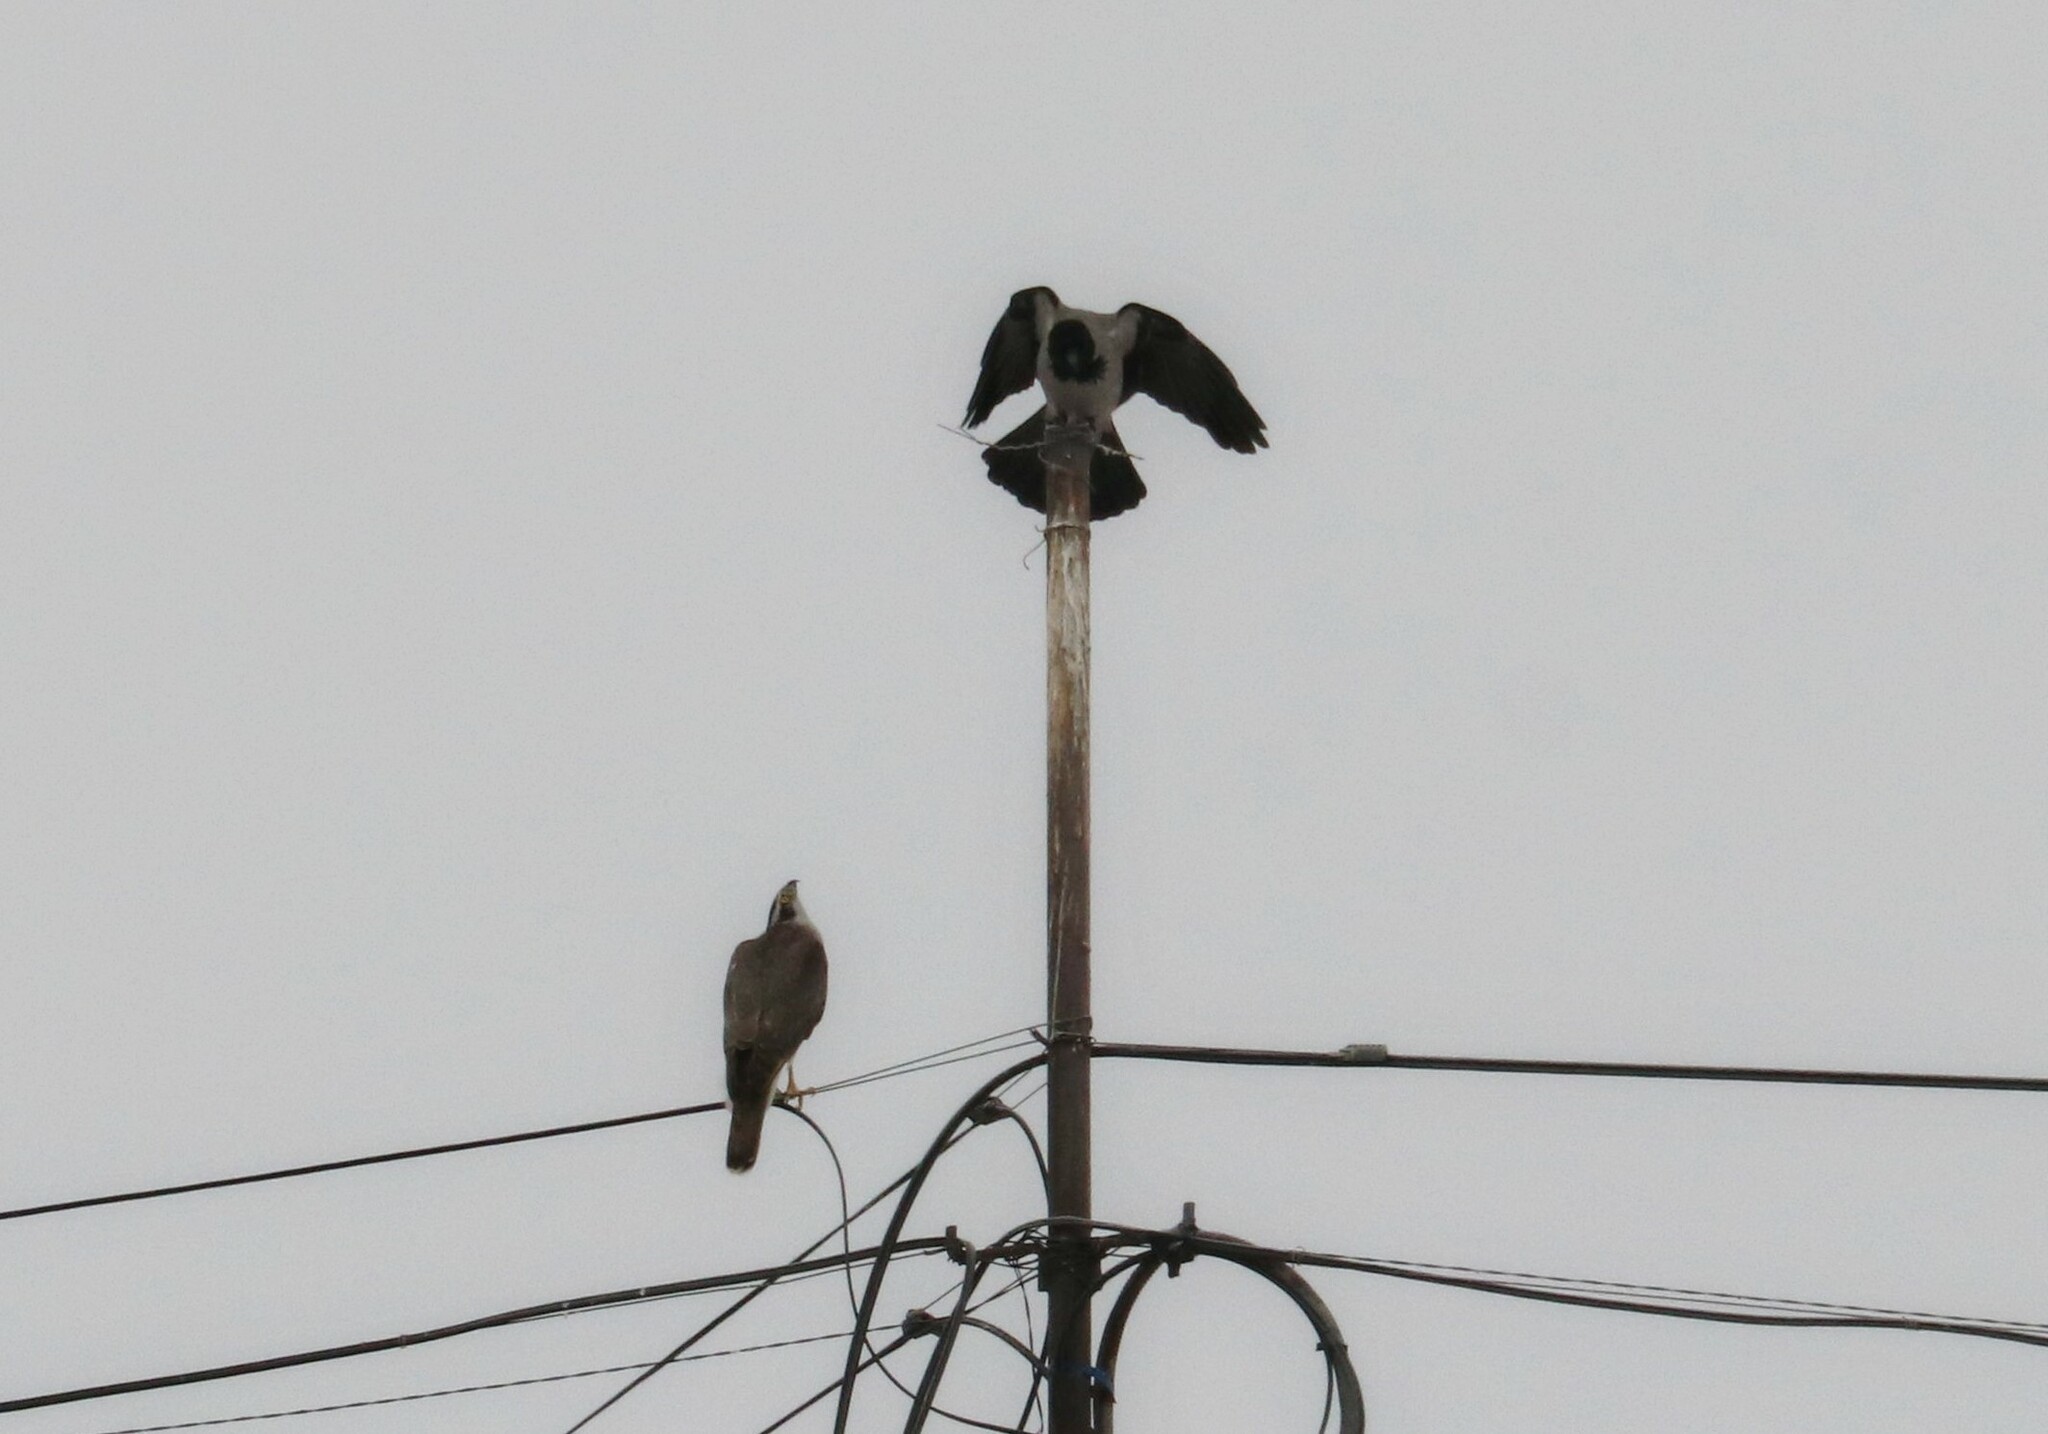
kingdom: Animalia
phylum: Chordata
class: Aves
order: Accipitriformes
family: Accipitridae
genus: Accipiter
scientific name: Accipiter gentilis
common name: Northern goshawk
